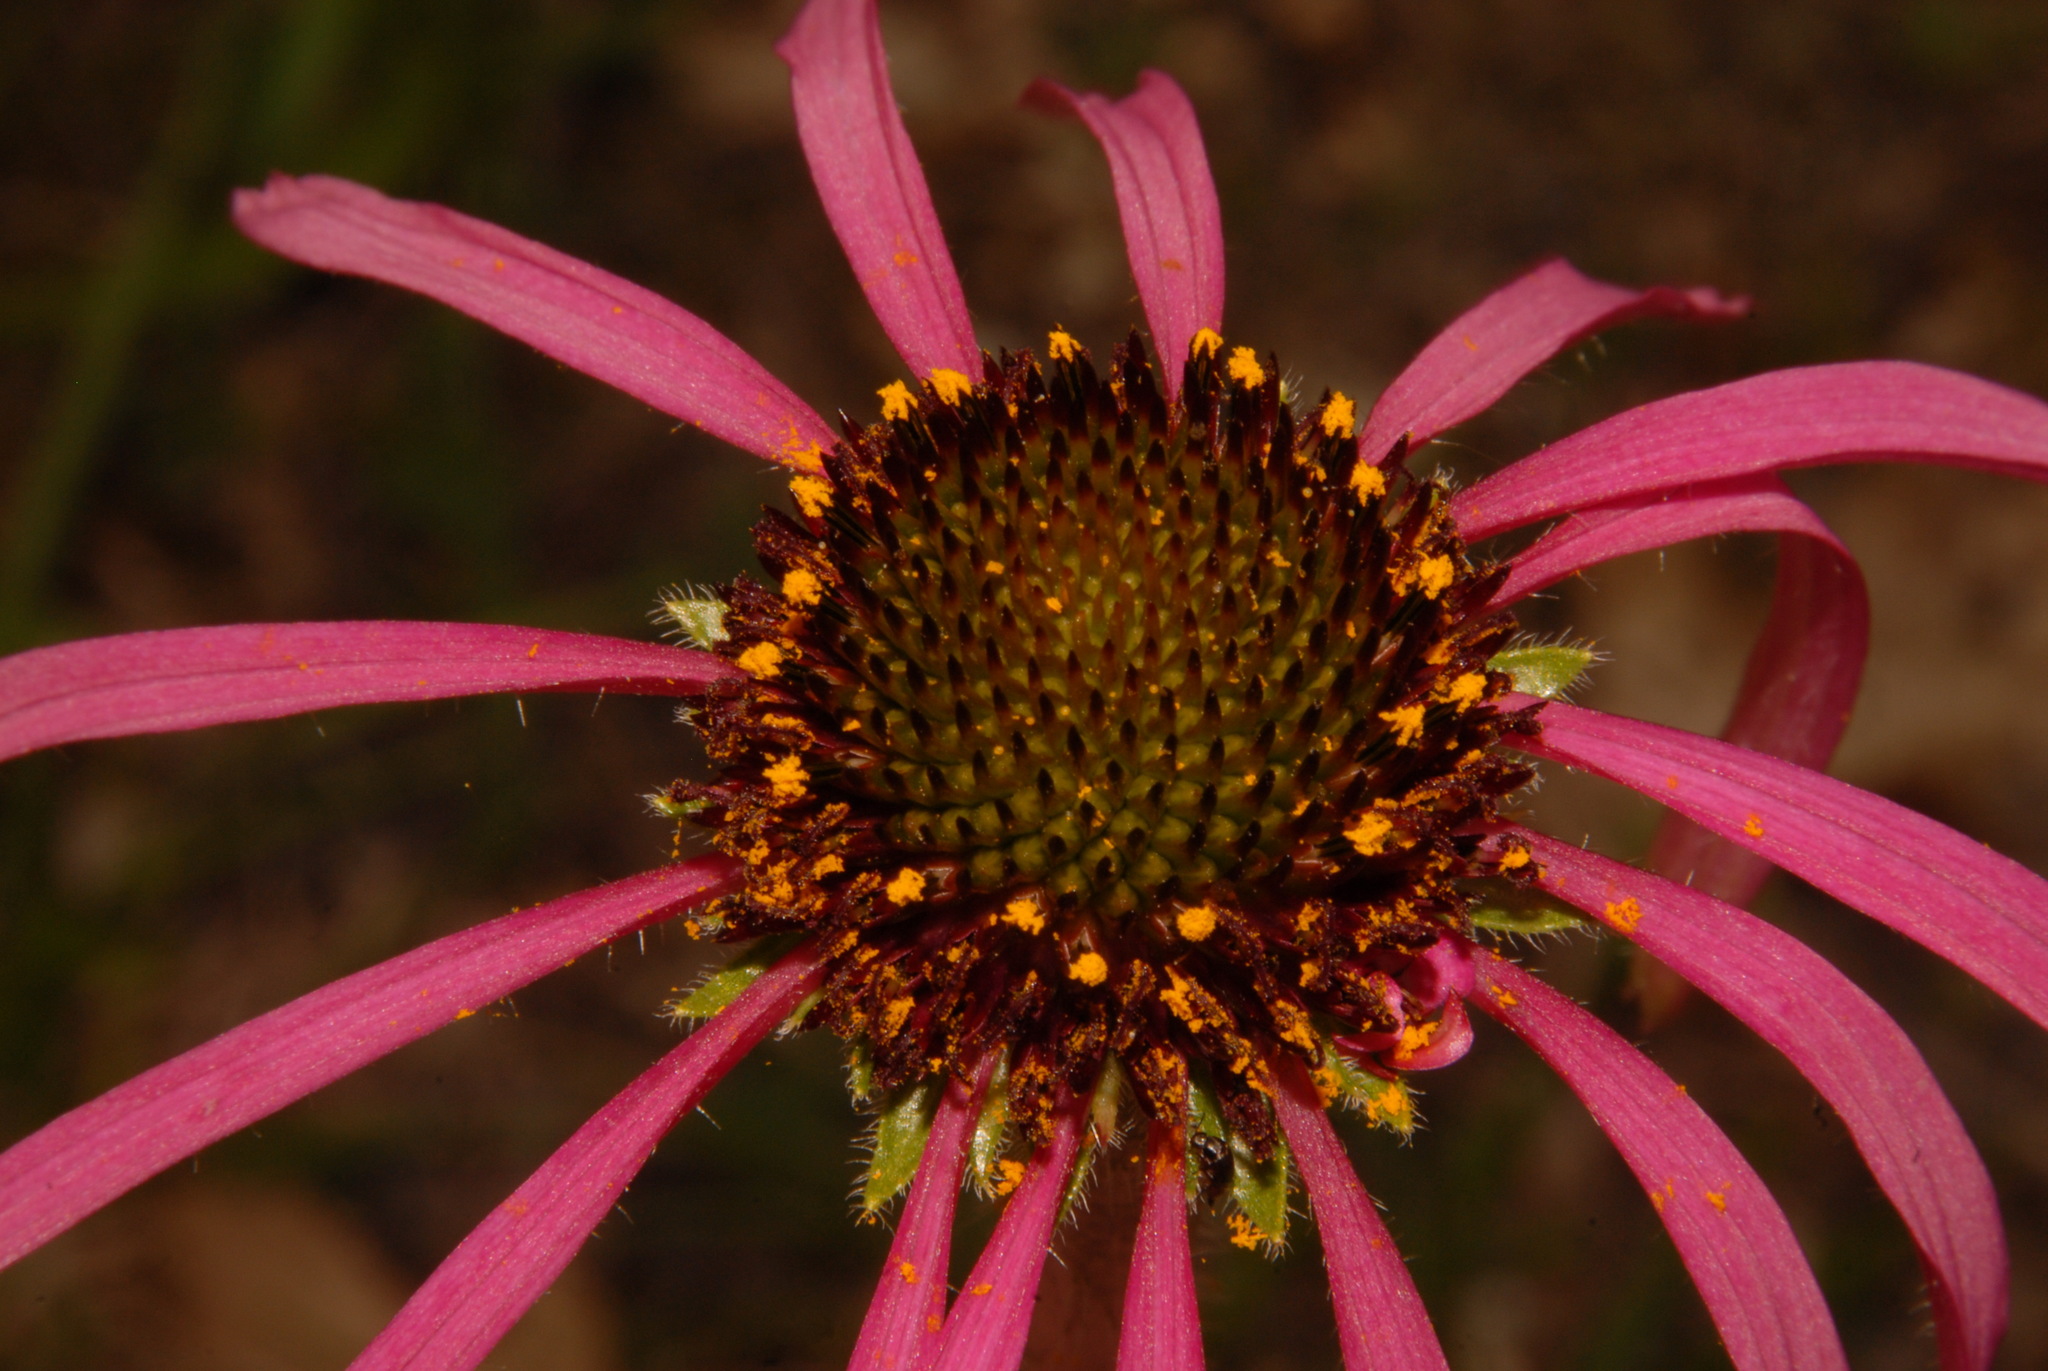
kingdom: Plantae
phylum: Tracheophyta
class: Magnoliopsida
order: Asterales
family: Asteraceae
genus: Echinacea
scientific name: Echinacea simulata
